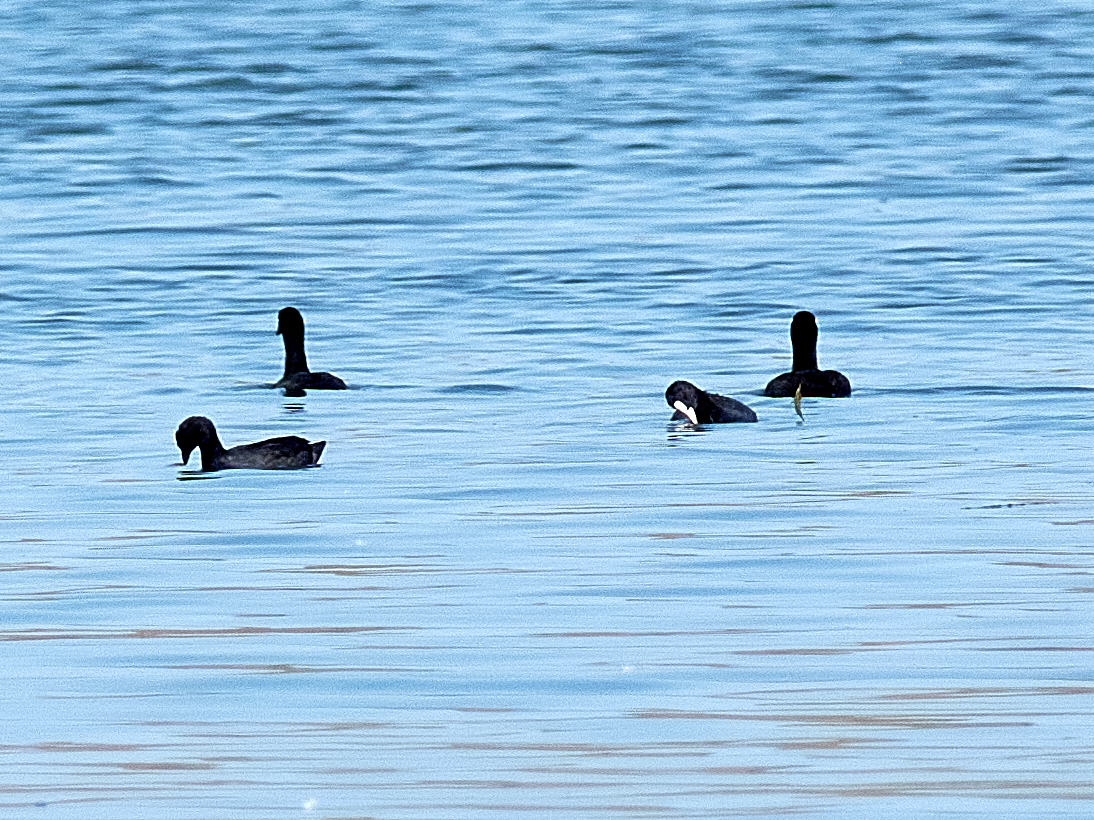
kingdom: Animalia
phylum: Chordata
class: Aves
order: Gruiformes
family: Rallidae
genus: Fulica
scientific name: Fulica atra
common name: Eurasian coot
